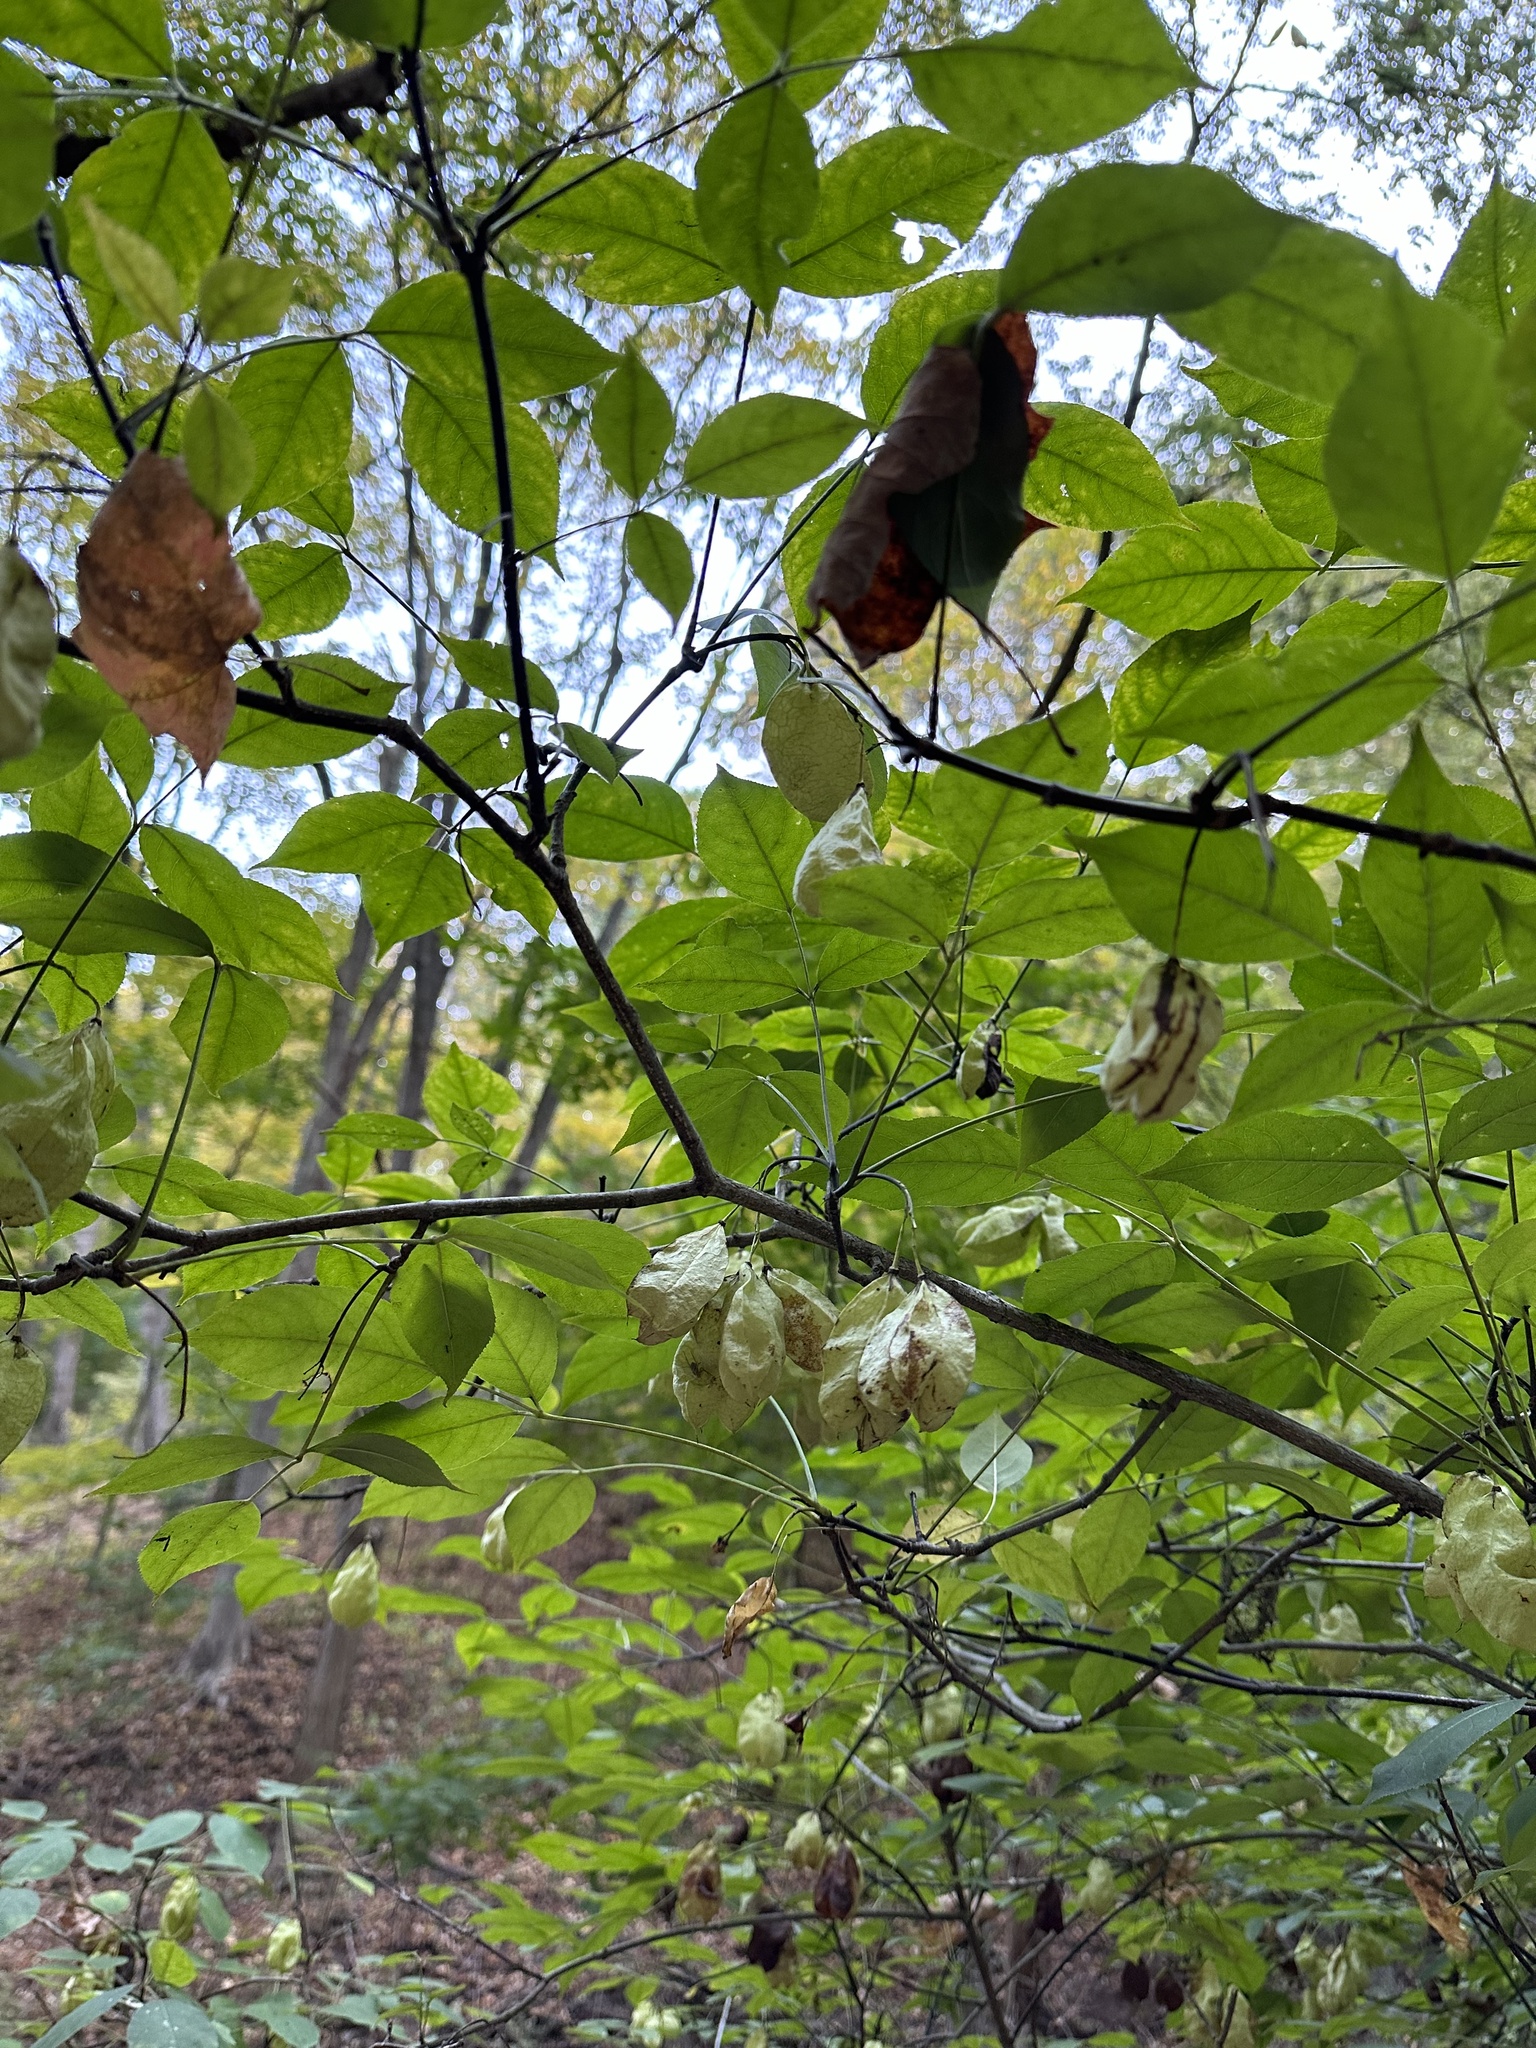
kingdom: Plantae
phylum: Tracheophyta
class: Magnoliopsida
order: Crossosomatales
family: Staphyleaceae
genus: Staphylea
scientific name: Staphylea trifolia
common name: American bladdernut
